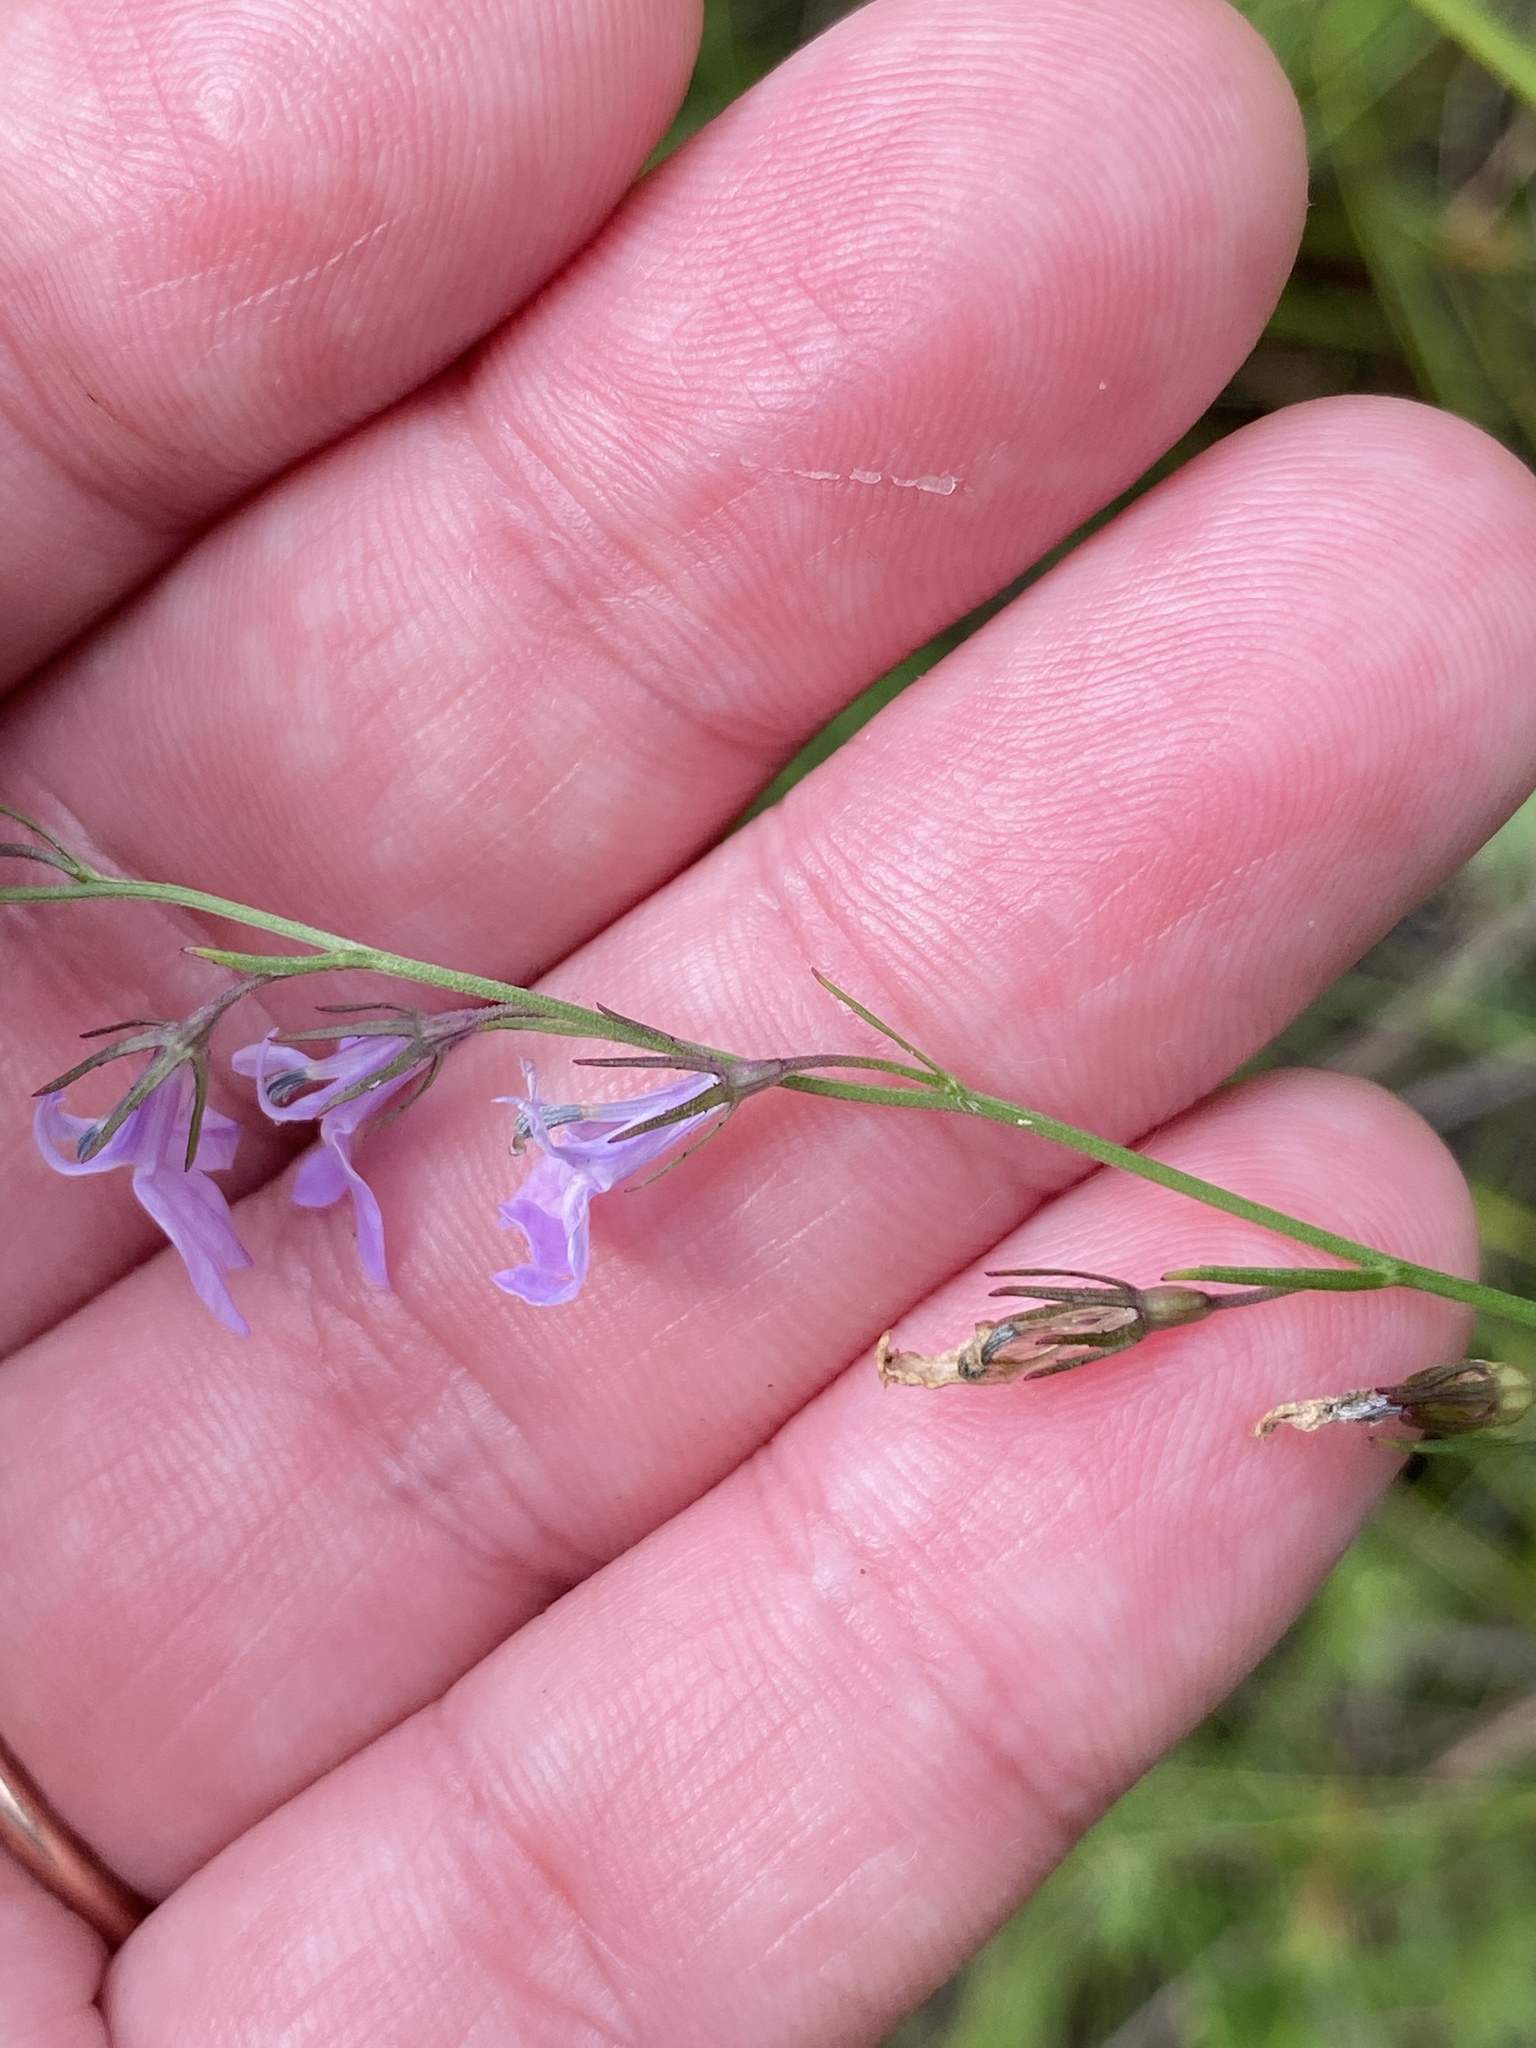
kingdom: Plantae
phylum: Tracheophyta
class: Magnoliopsida
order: Asterales
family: Campanulaceae
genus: Lobelia
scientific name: Lobelia canbyi
